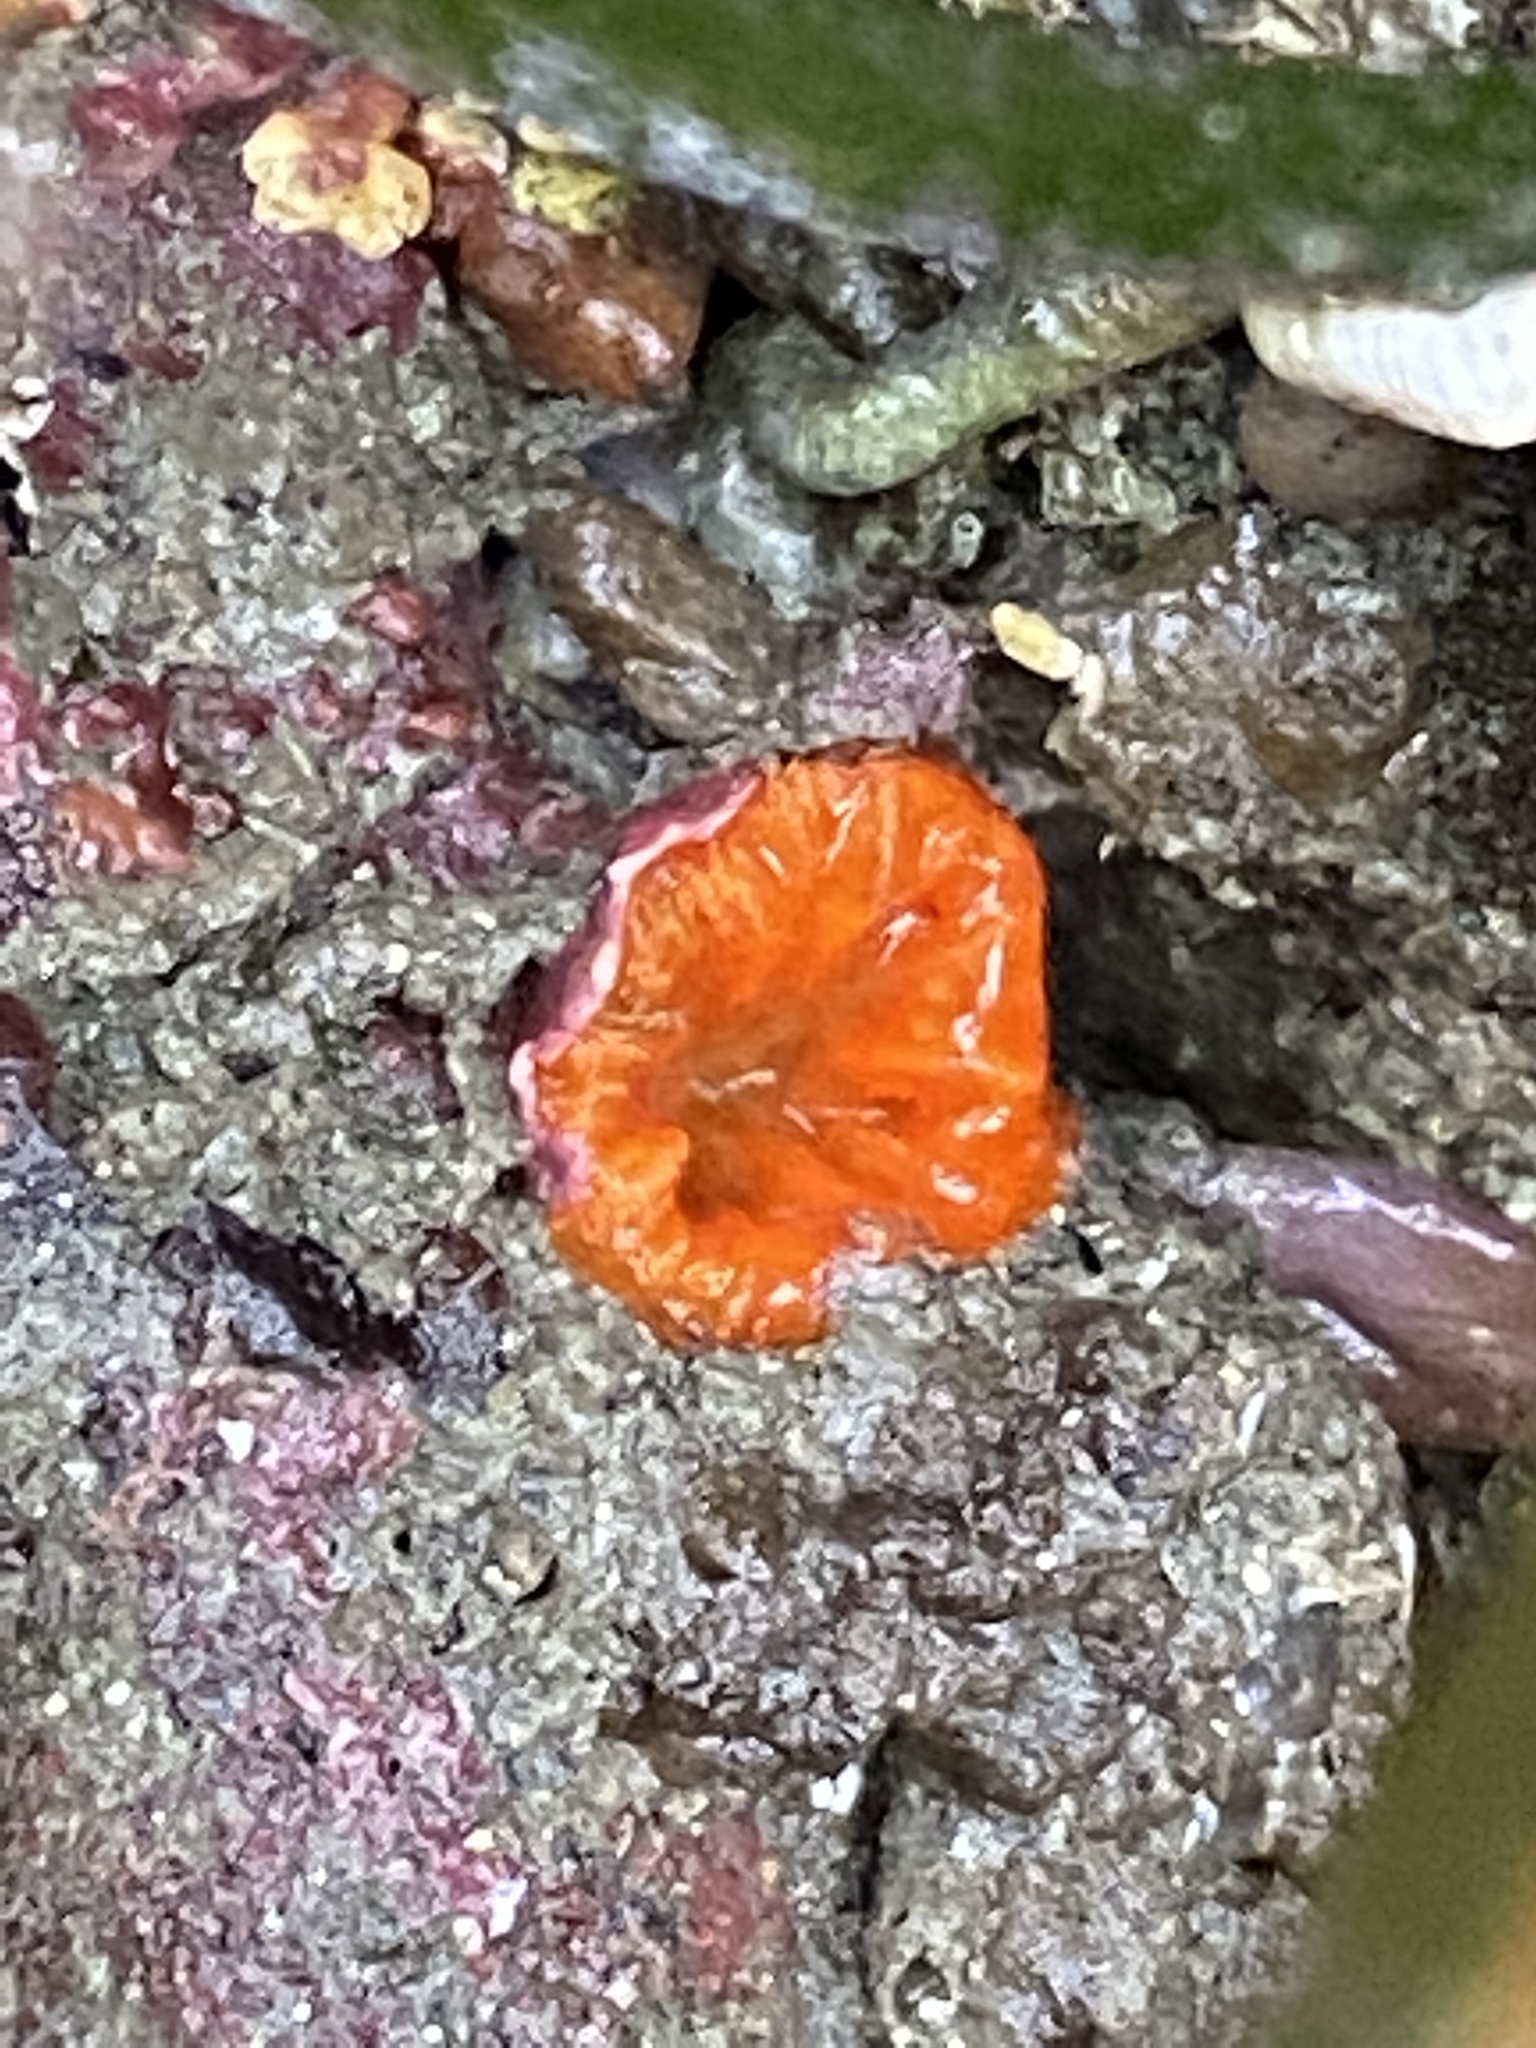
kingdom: Animalia
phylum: Cnidaria
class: Anthozoa
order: Scleractinia
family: Dendrophylliidae
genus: Balanophyllia
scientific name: Balanophyllia elegans
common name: Orange stony coral
